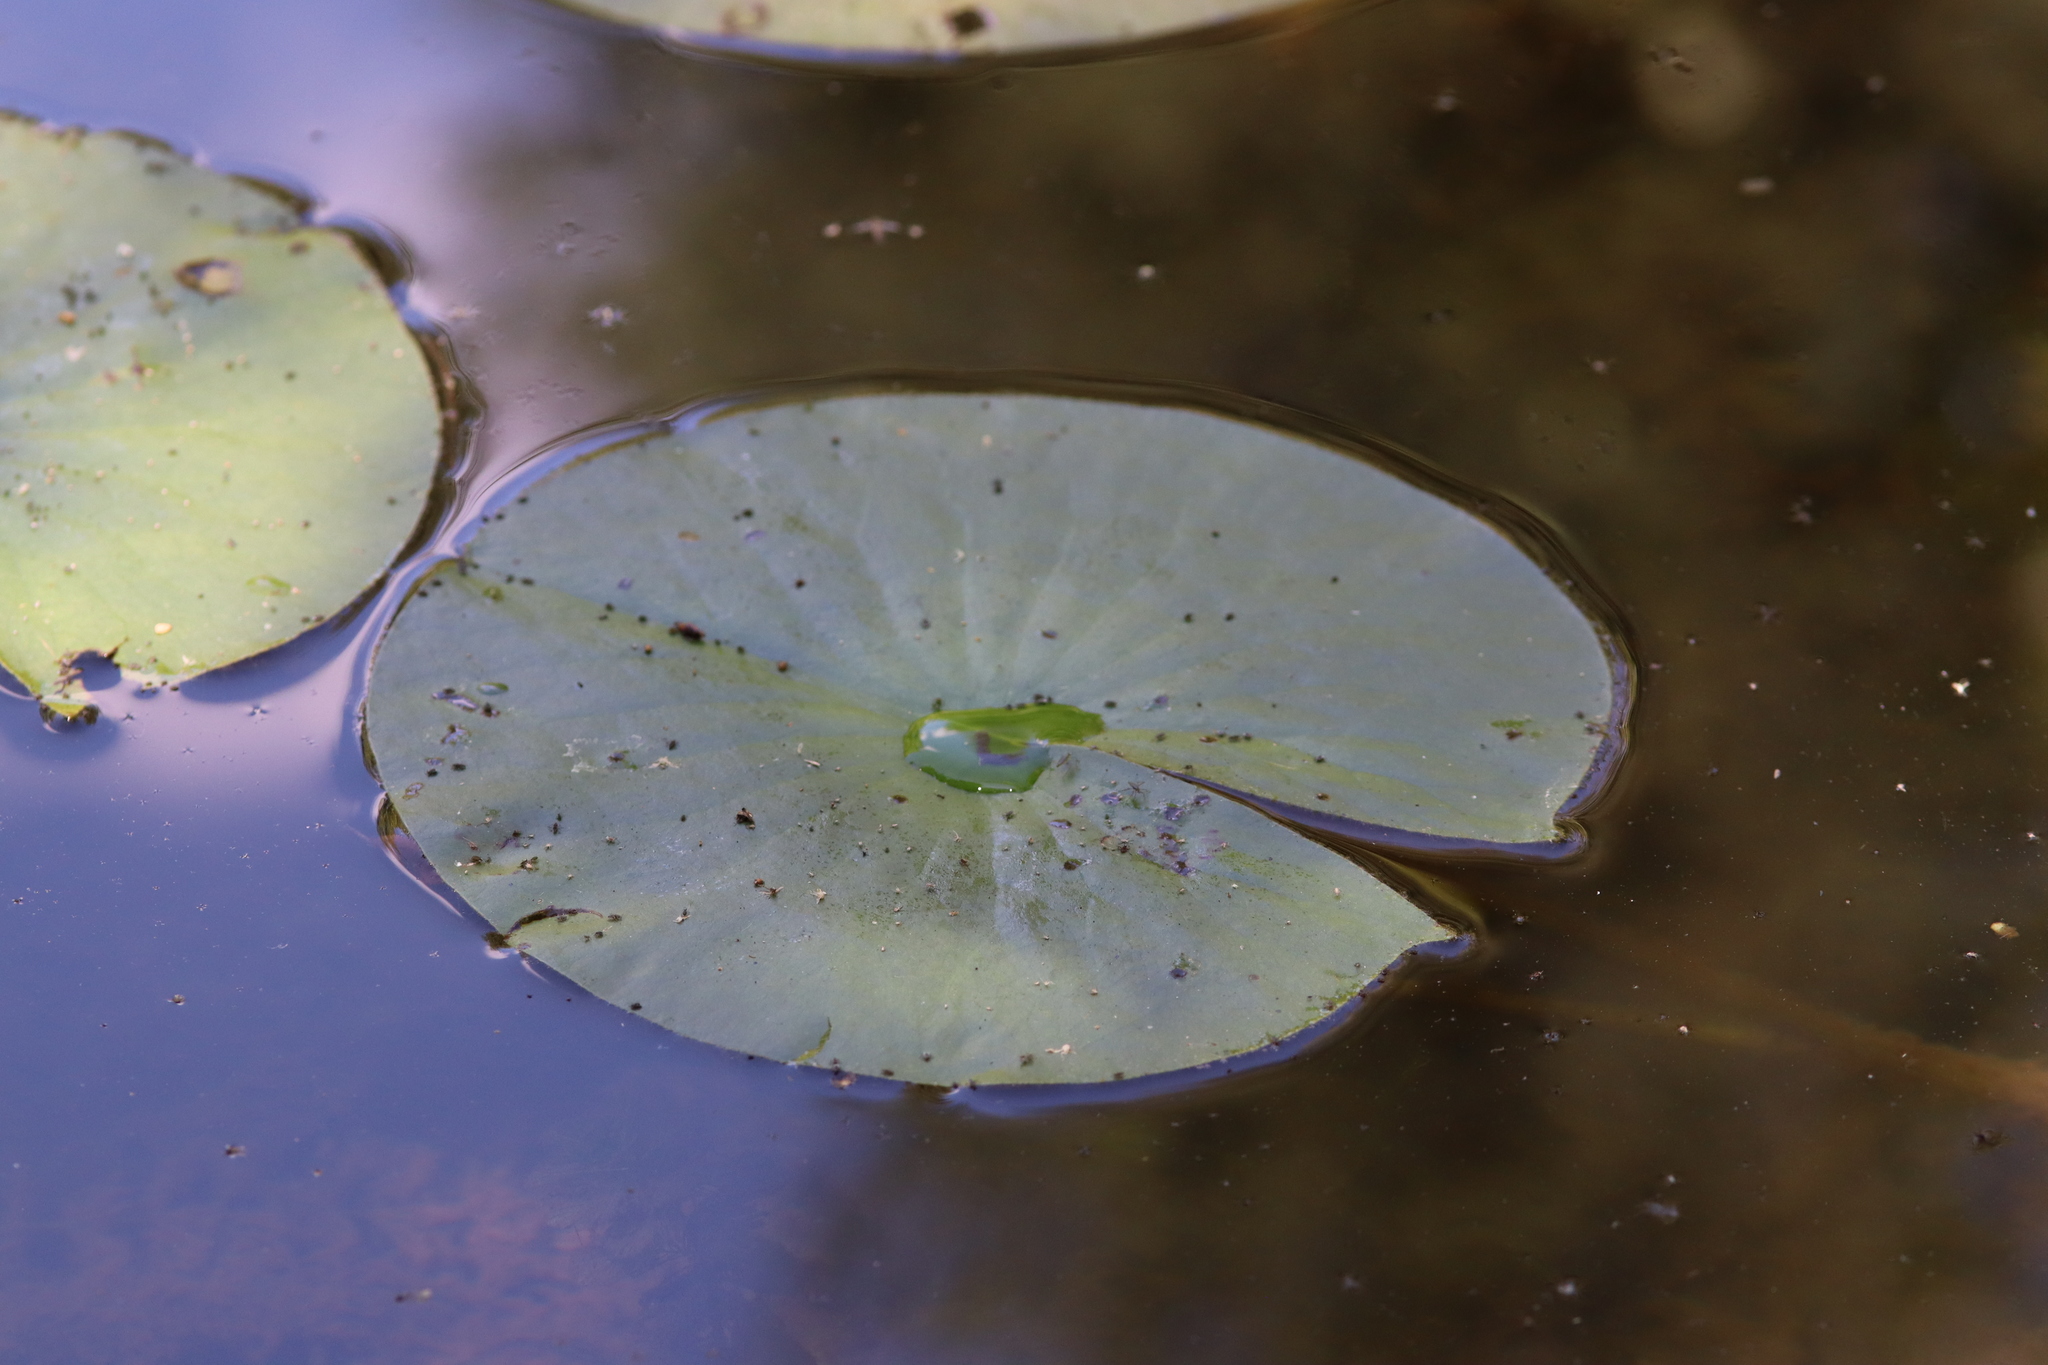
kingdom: Plantae
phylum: Tracheophyta
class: Magnoliopsida
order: Nymphaeales
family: Nymphaeaceae
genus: Nymphaea
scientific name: Nymphaea odorata
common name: Fragrant water-lily
